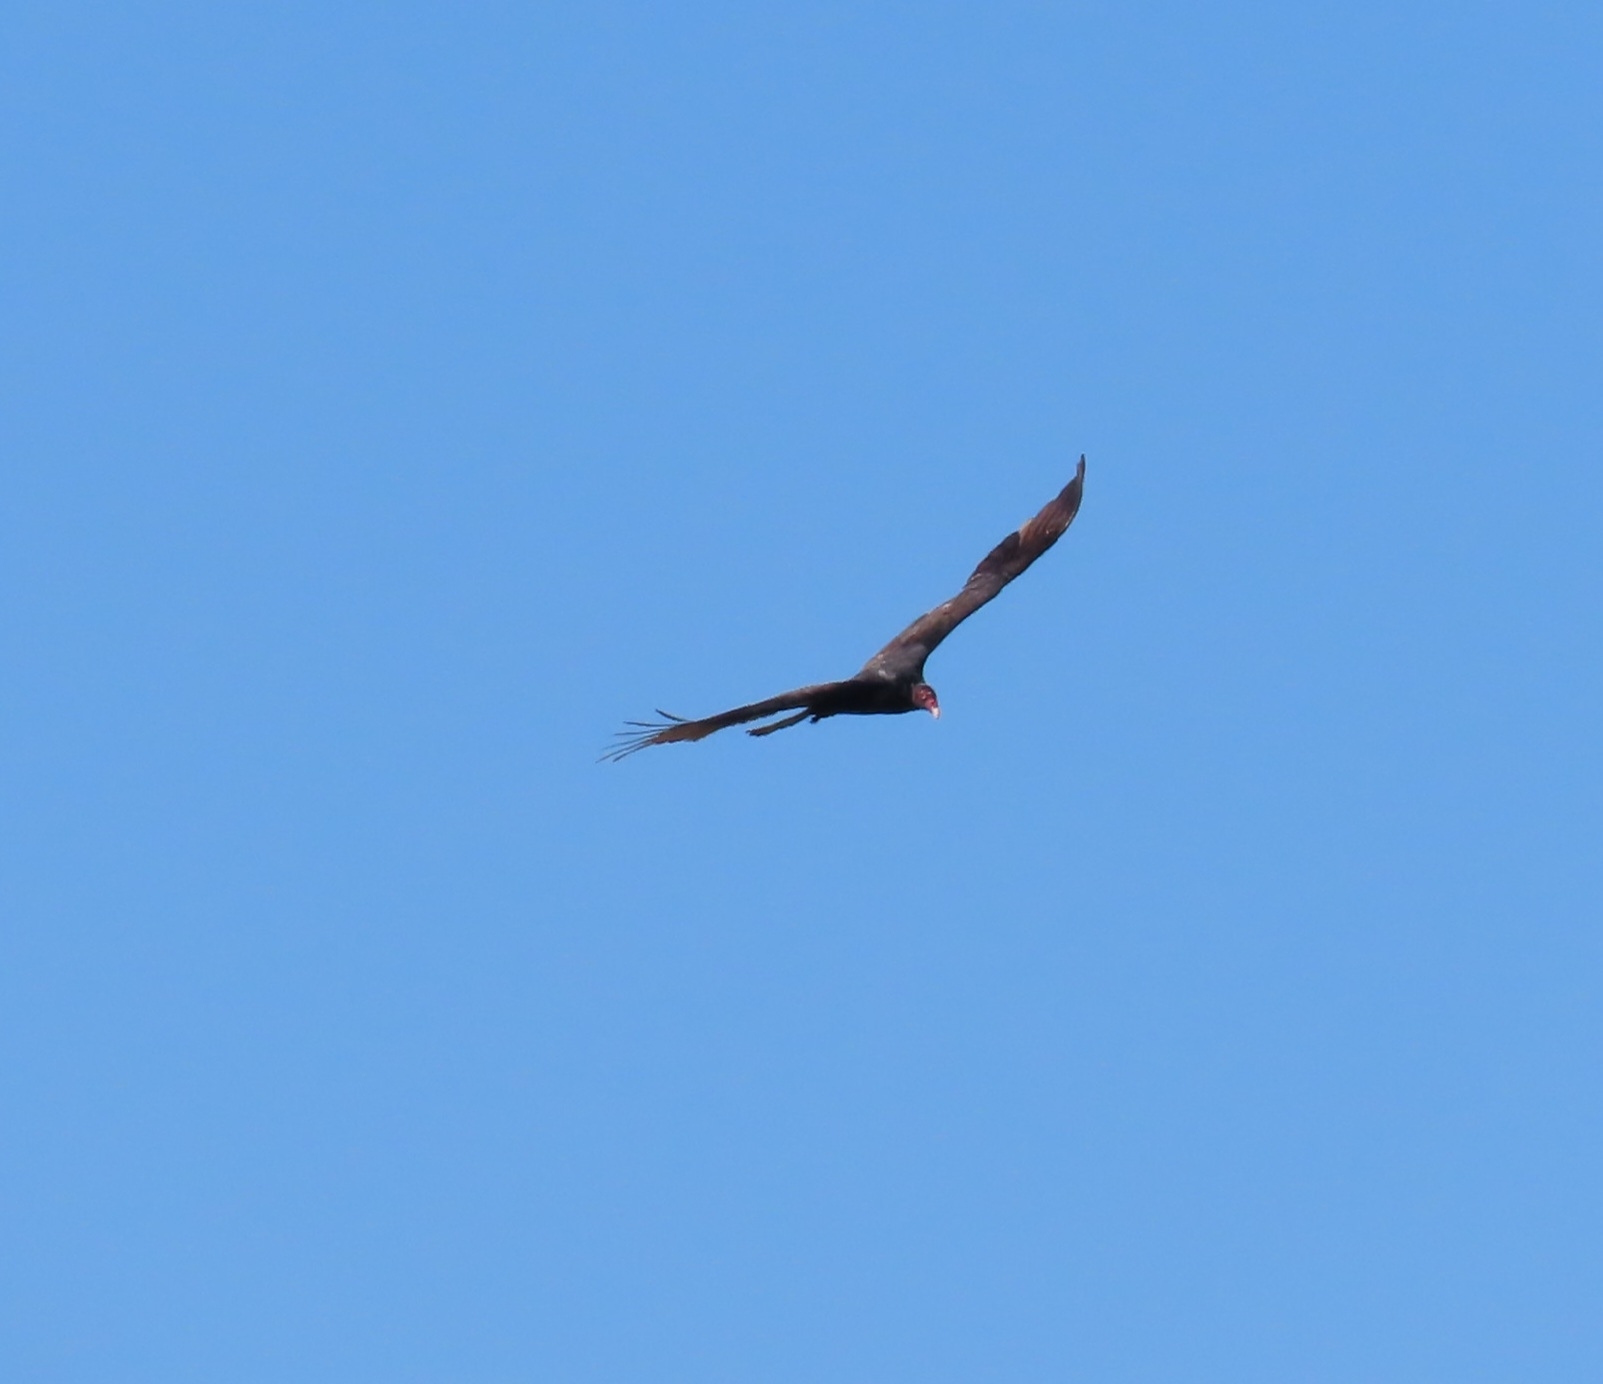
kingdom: Animalia
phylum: Chordata
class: Aves
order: Accipitriformes
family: Cathartidae
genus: Cathartes
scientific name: Cathartes aura
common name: Turkey vulture
